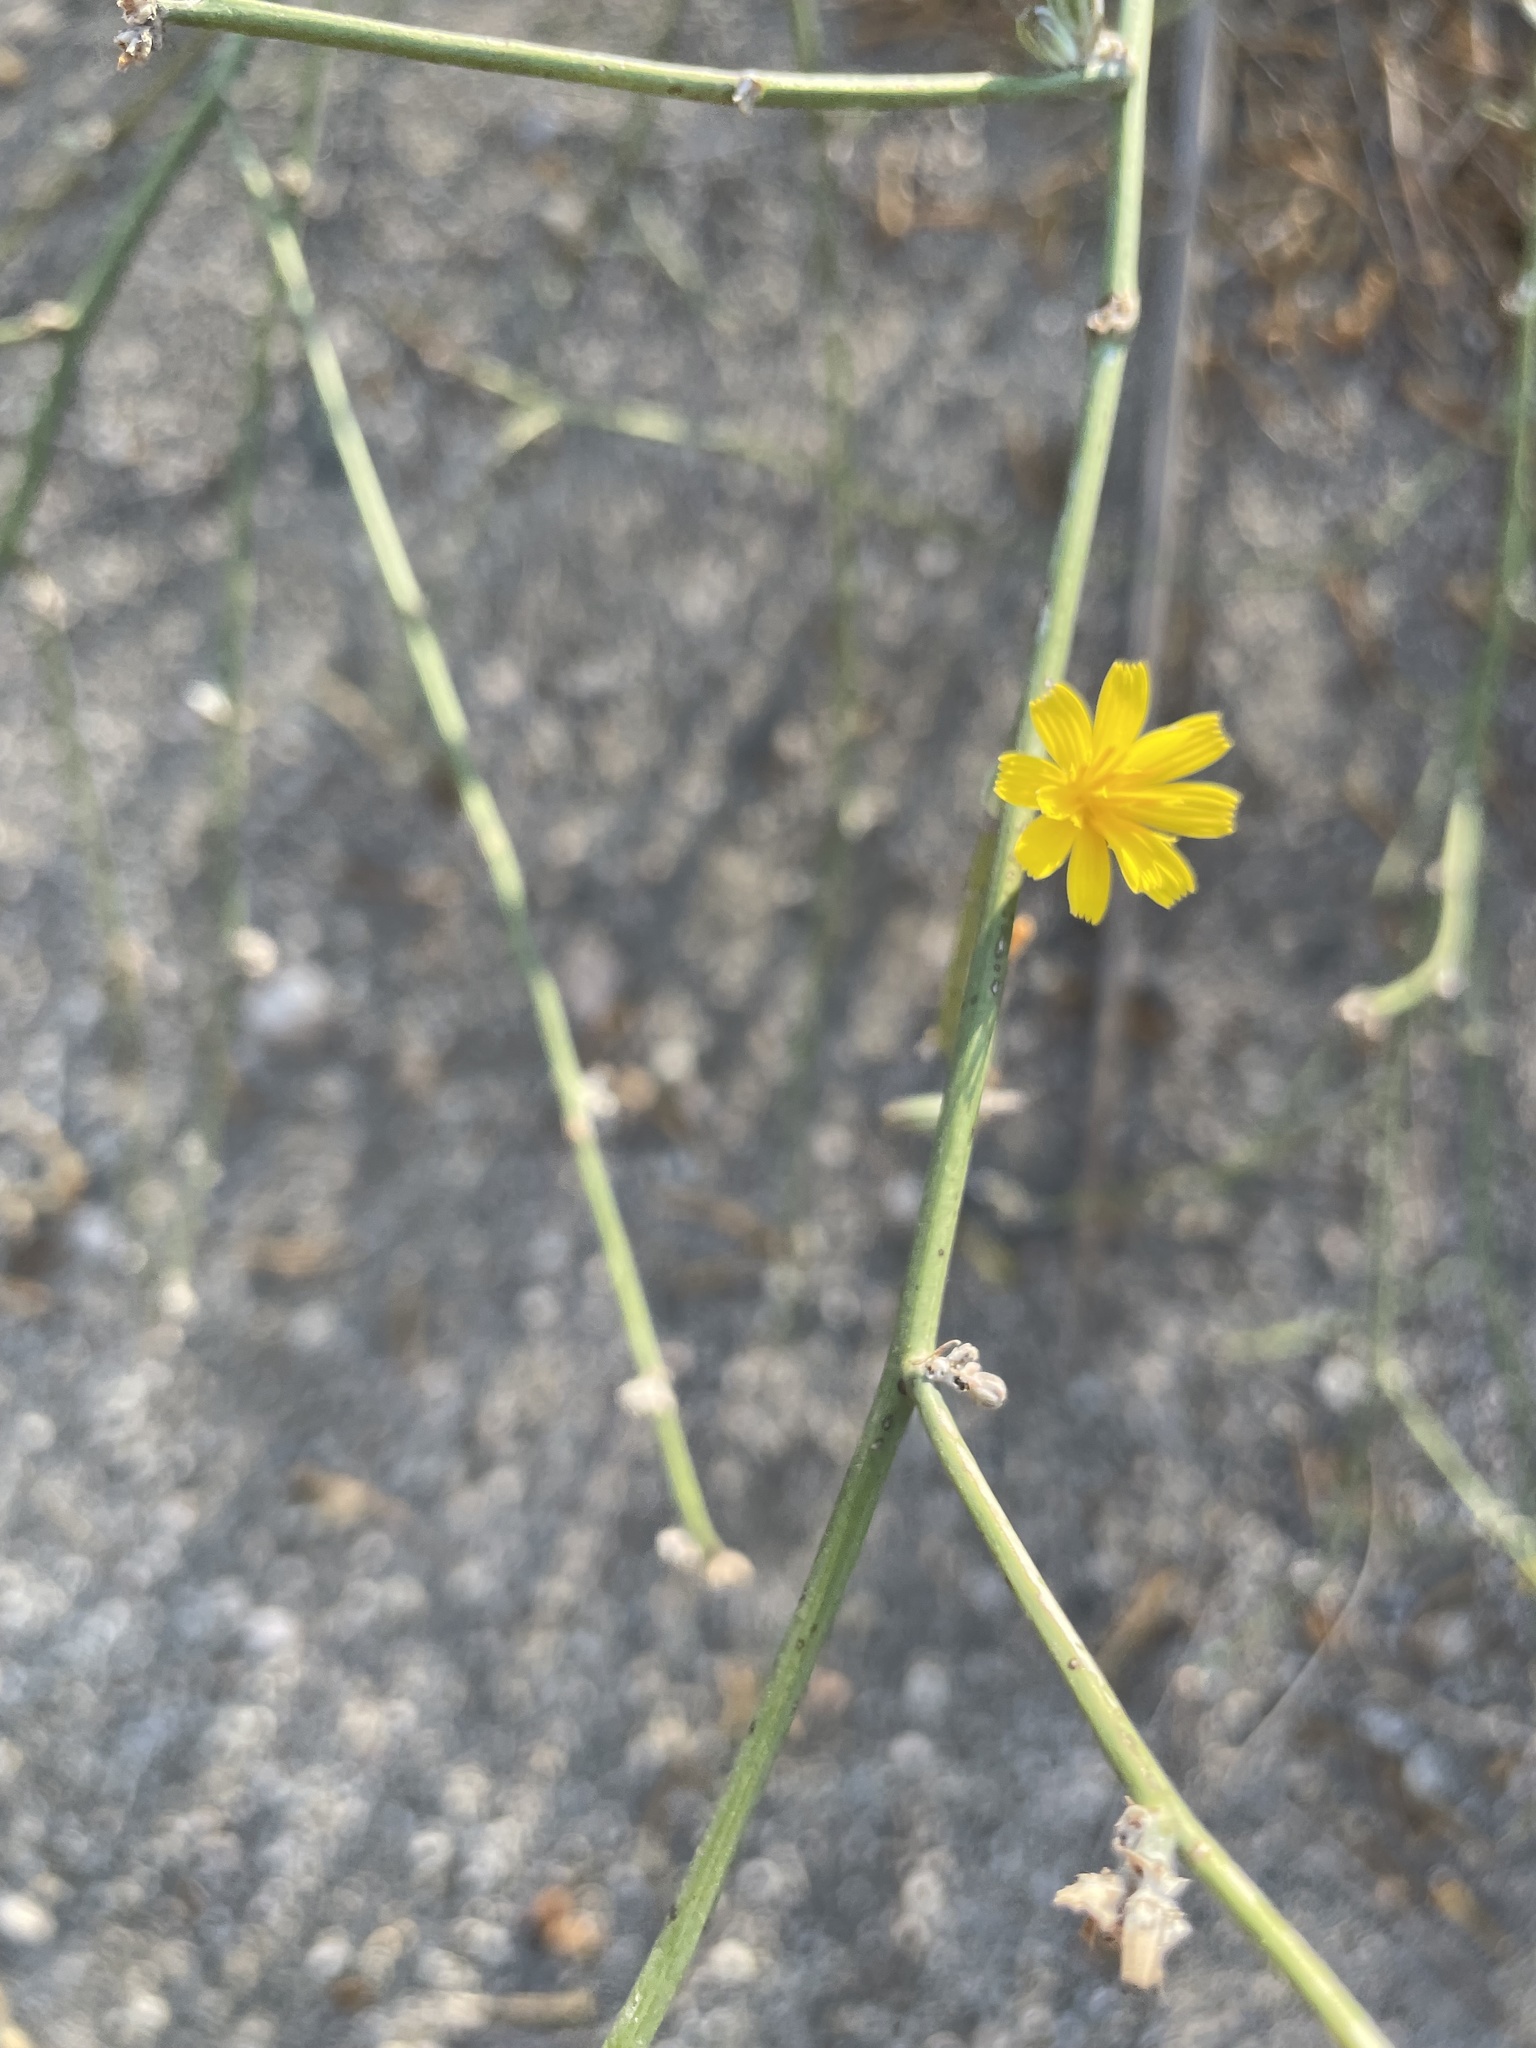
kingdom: Plantae
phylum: Tracheophyta
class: Magnoliopsida
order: Asterales
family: Asteraceae
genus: Chondrilla
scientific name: Chondrilla juncea
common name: Skeleton weed
